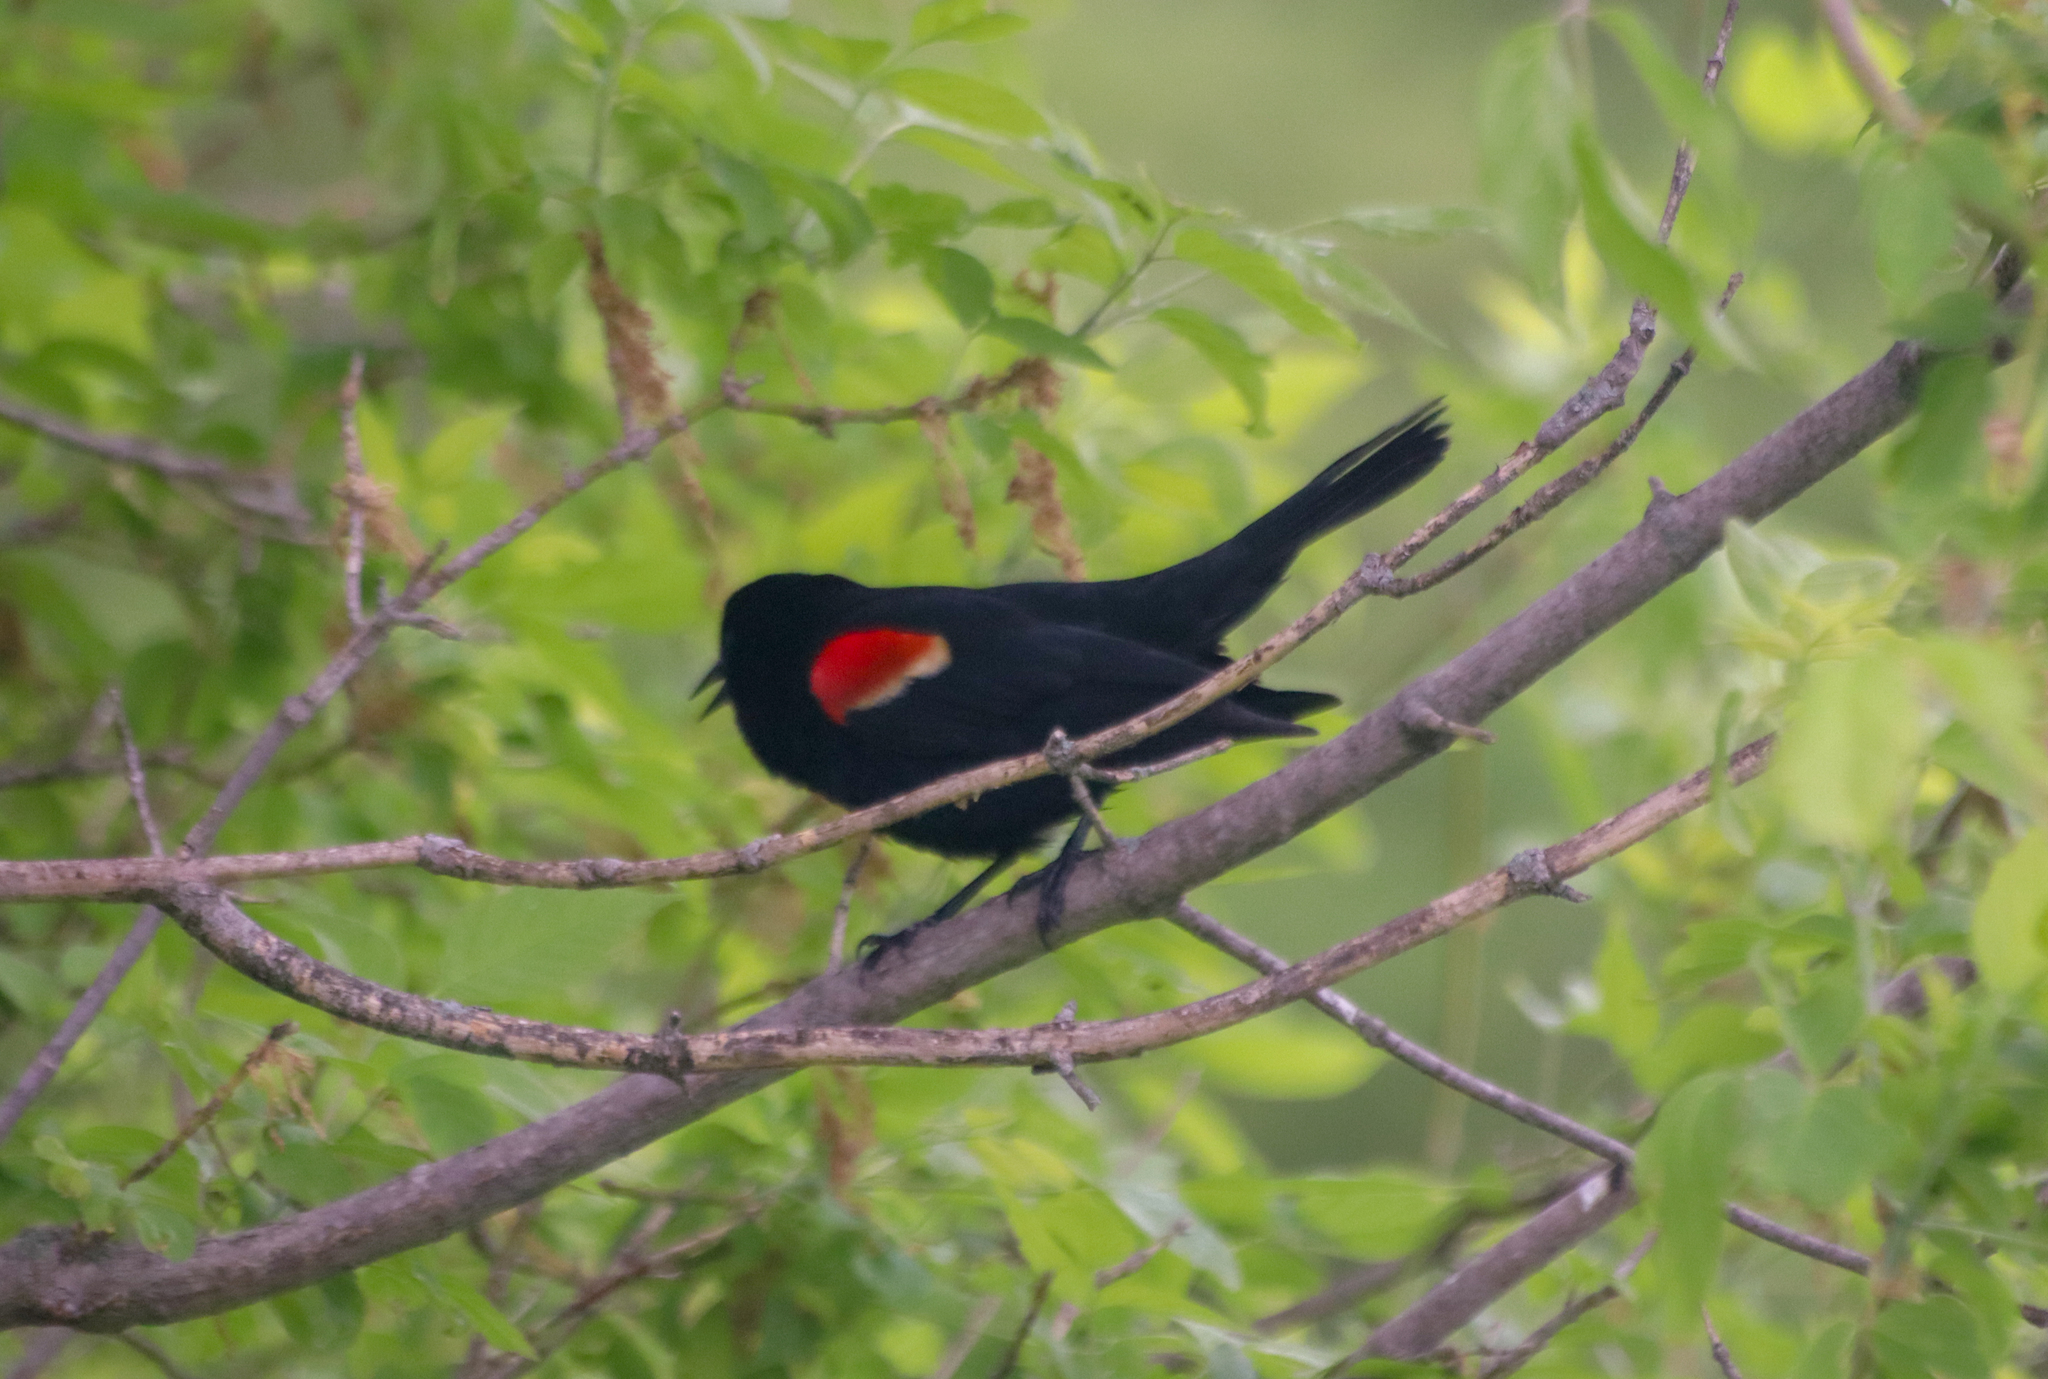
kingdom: Animalia
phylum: Chordata
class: Aves
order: Passeriformes
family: Icteridae
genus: Agelaius
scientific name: Agelaius phoeniceus
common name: Red-winged blackbird
